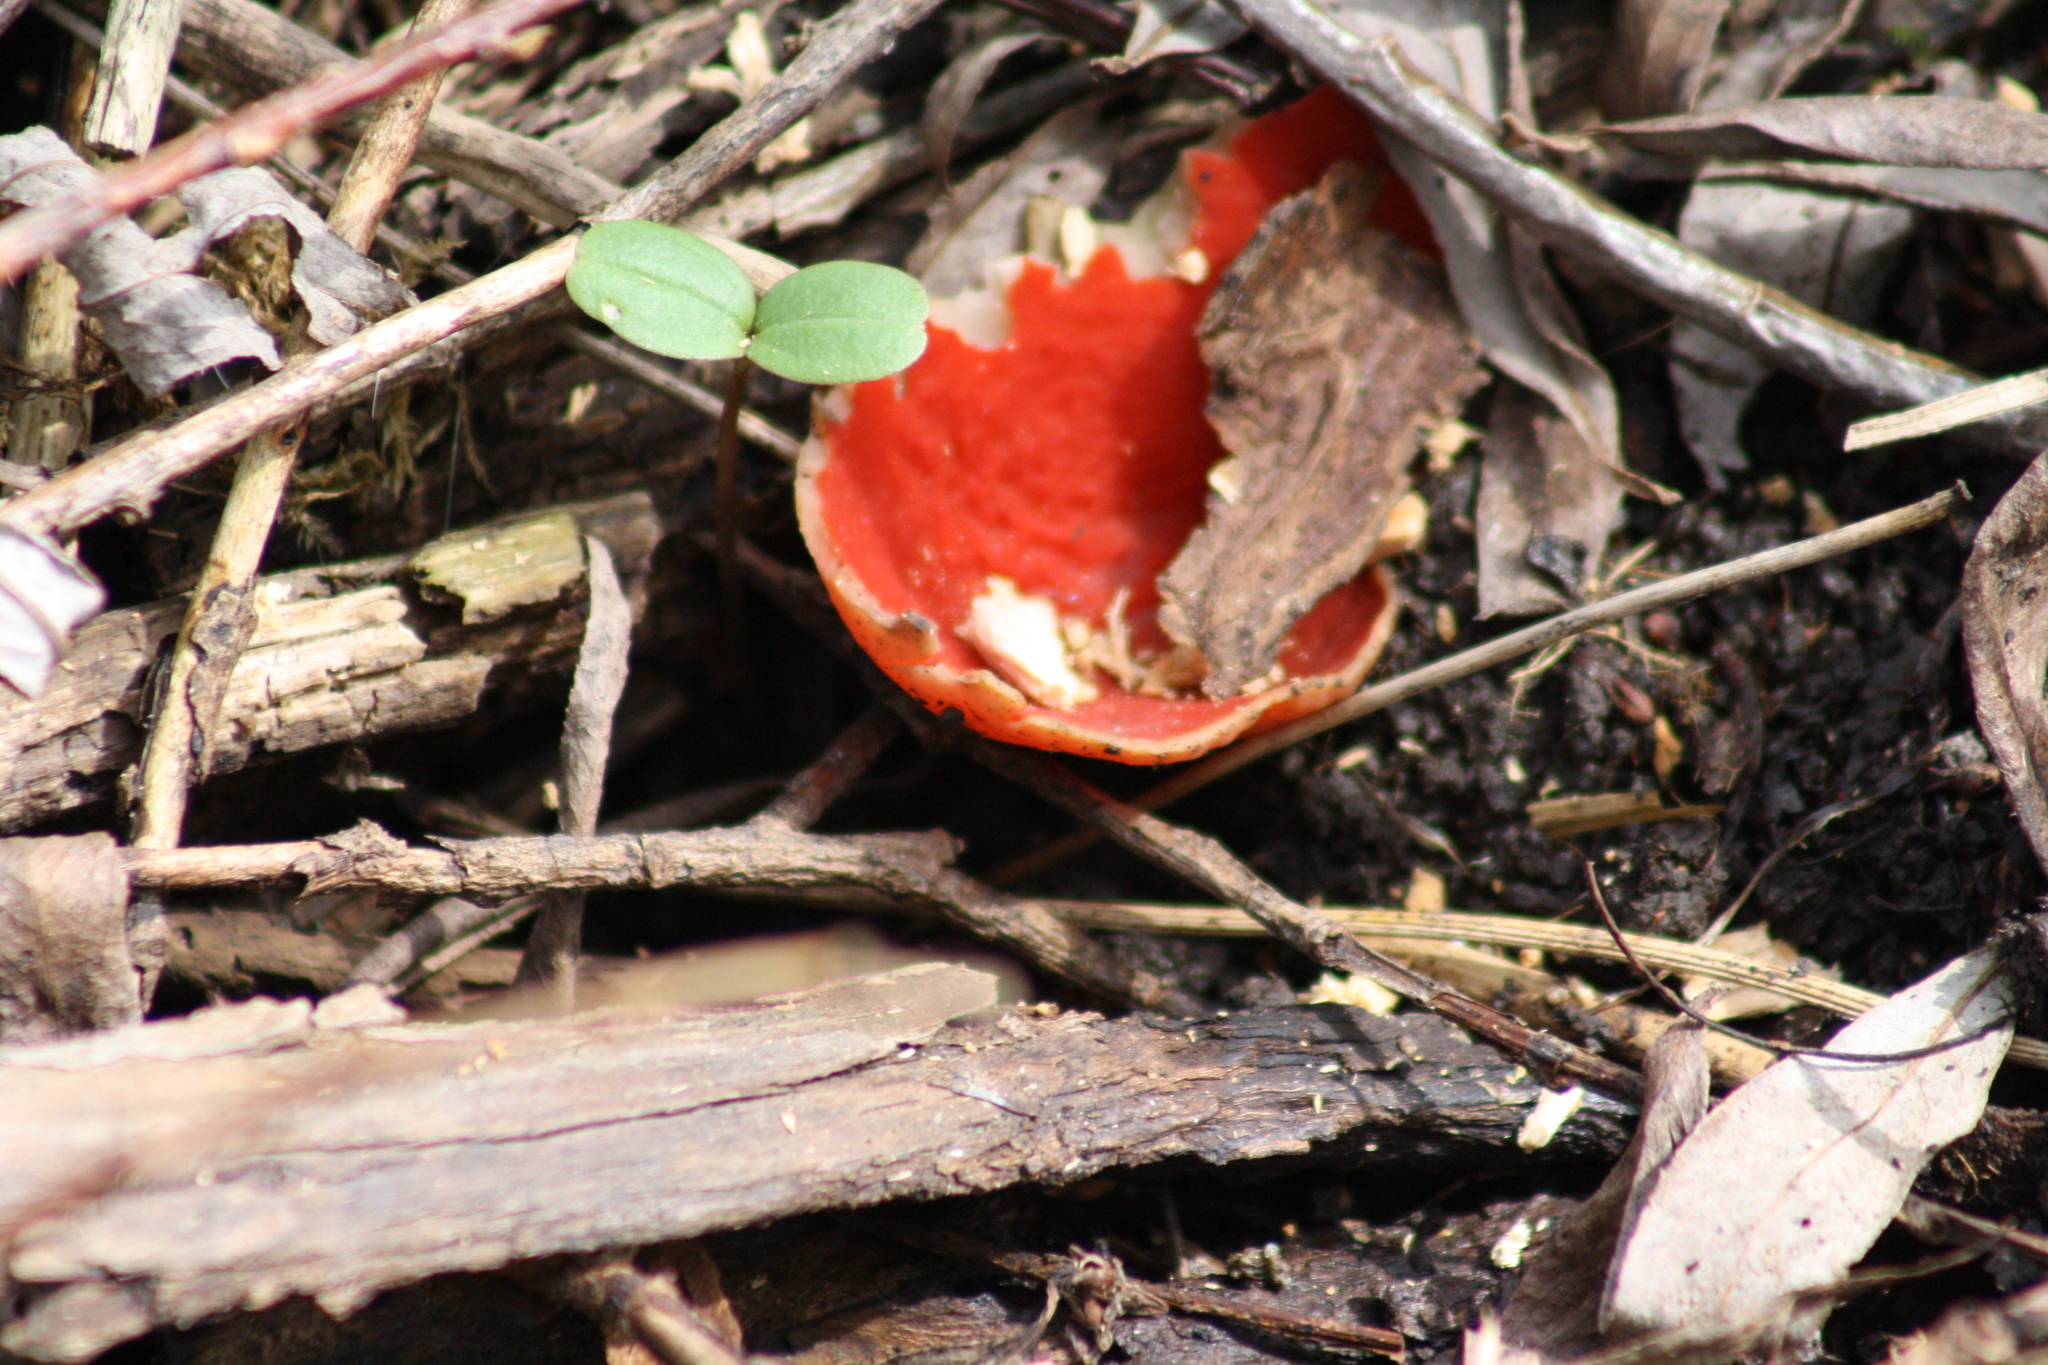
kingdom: Fungi
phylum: Ascomycota
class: Pezizomycetes
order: Pezizales
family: Sarcoscyphaceae
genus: Sarcoscypha
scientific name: Sarcoscypha
